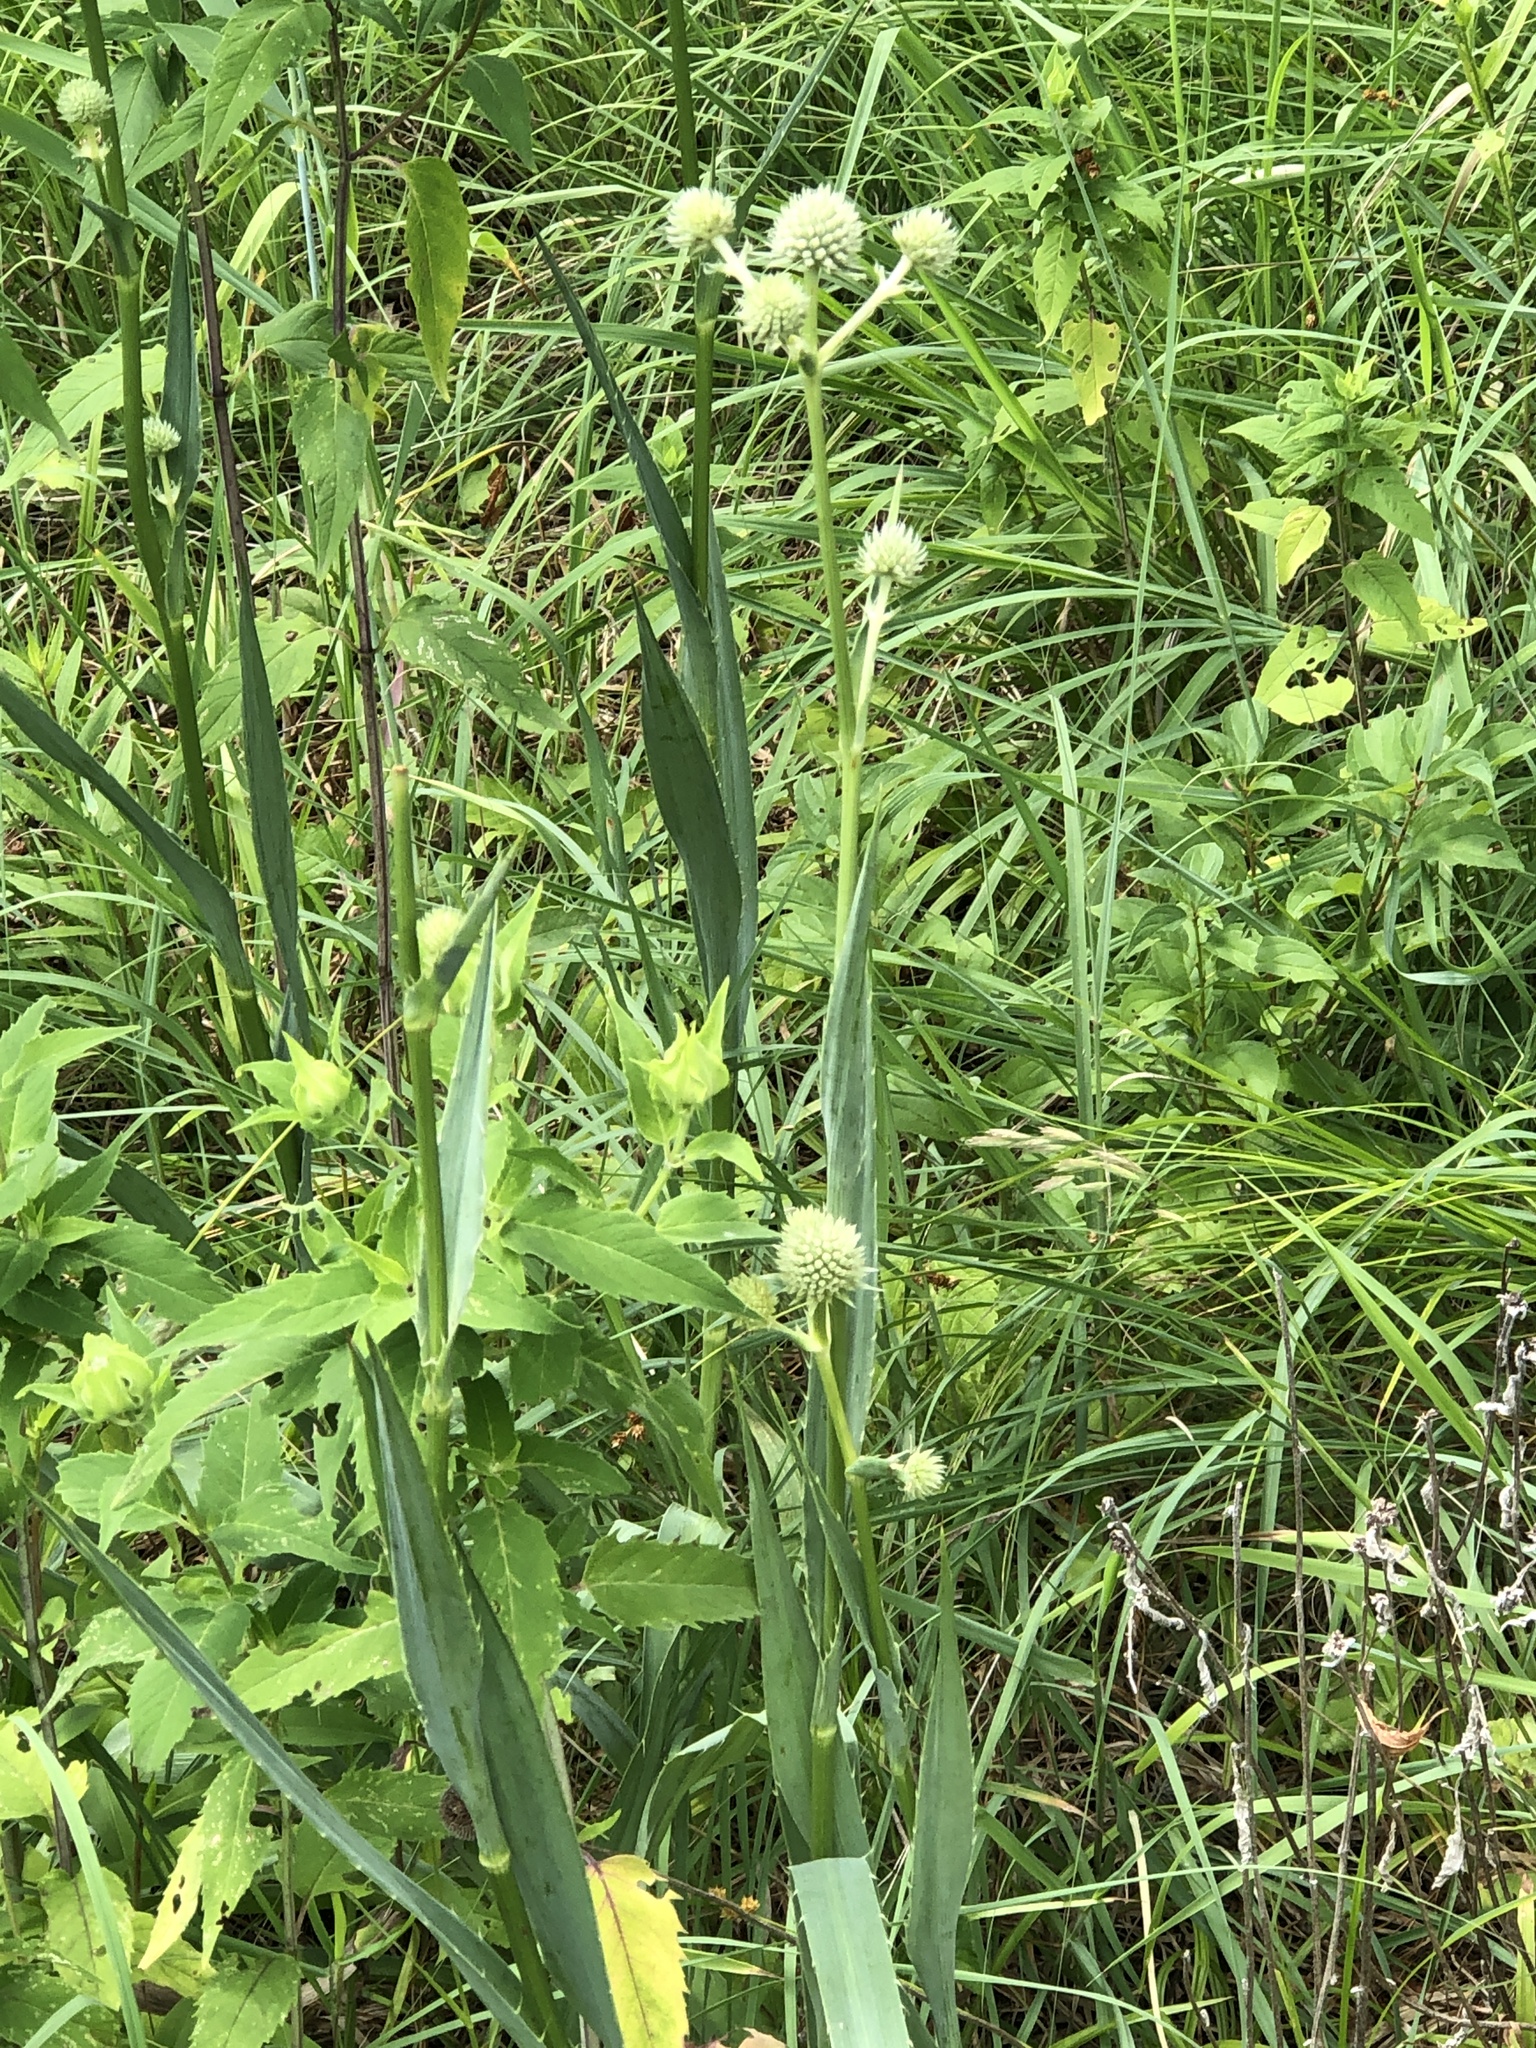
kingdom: Plantae
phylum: Tracheophyta
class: Magnoliopsida
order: Apiales
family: Apiaceae
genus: Eryngium
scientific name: Eryngium yuccifolium
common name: Button eryngo
